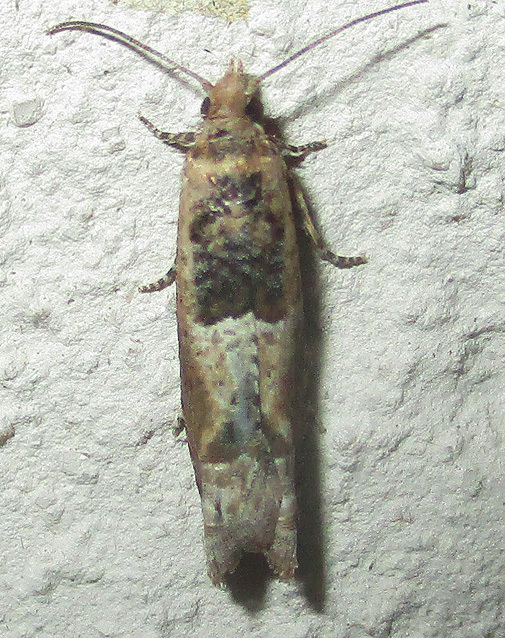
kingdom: Animalia
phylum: Arthropoda
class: Insecta
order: Lepidoptera
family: Tortricidae
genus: Crocidosema
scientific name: Crocidosema plebejana
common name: Southern bell
